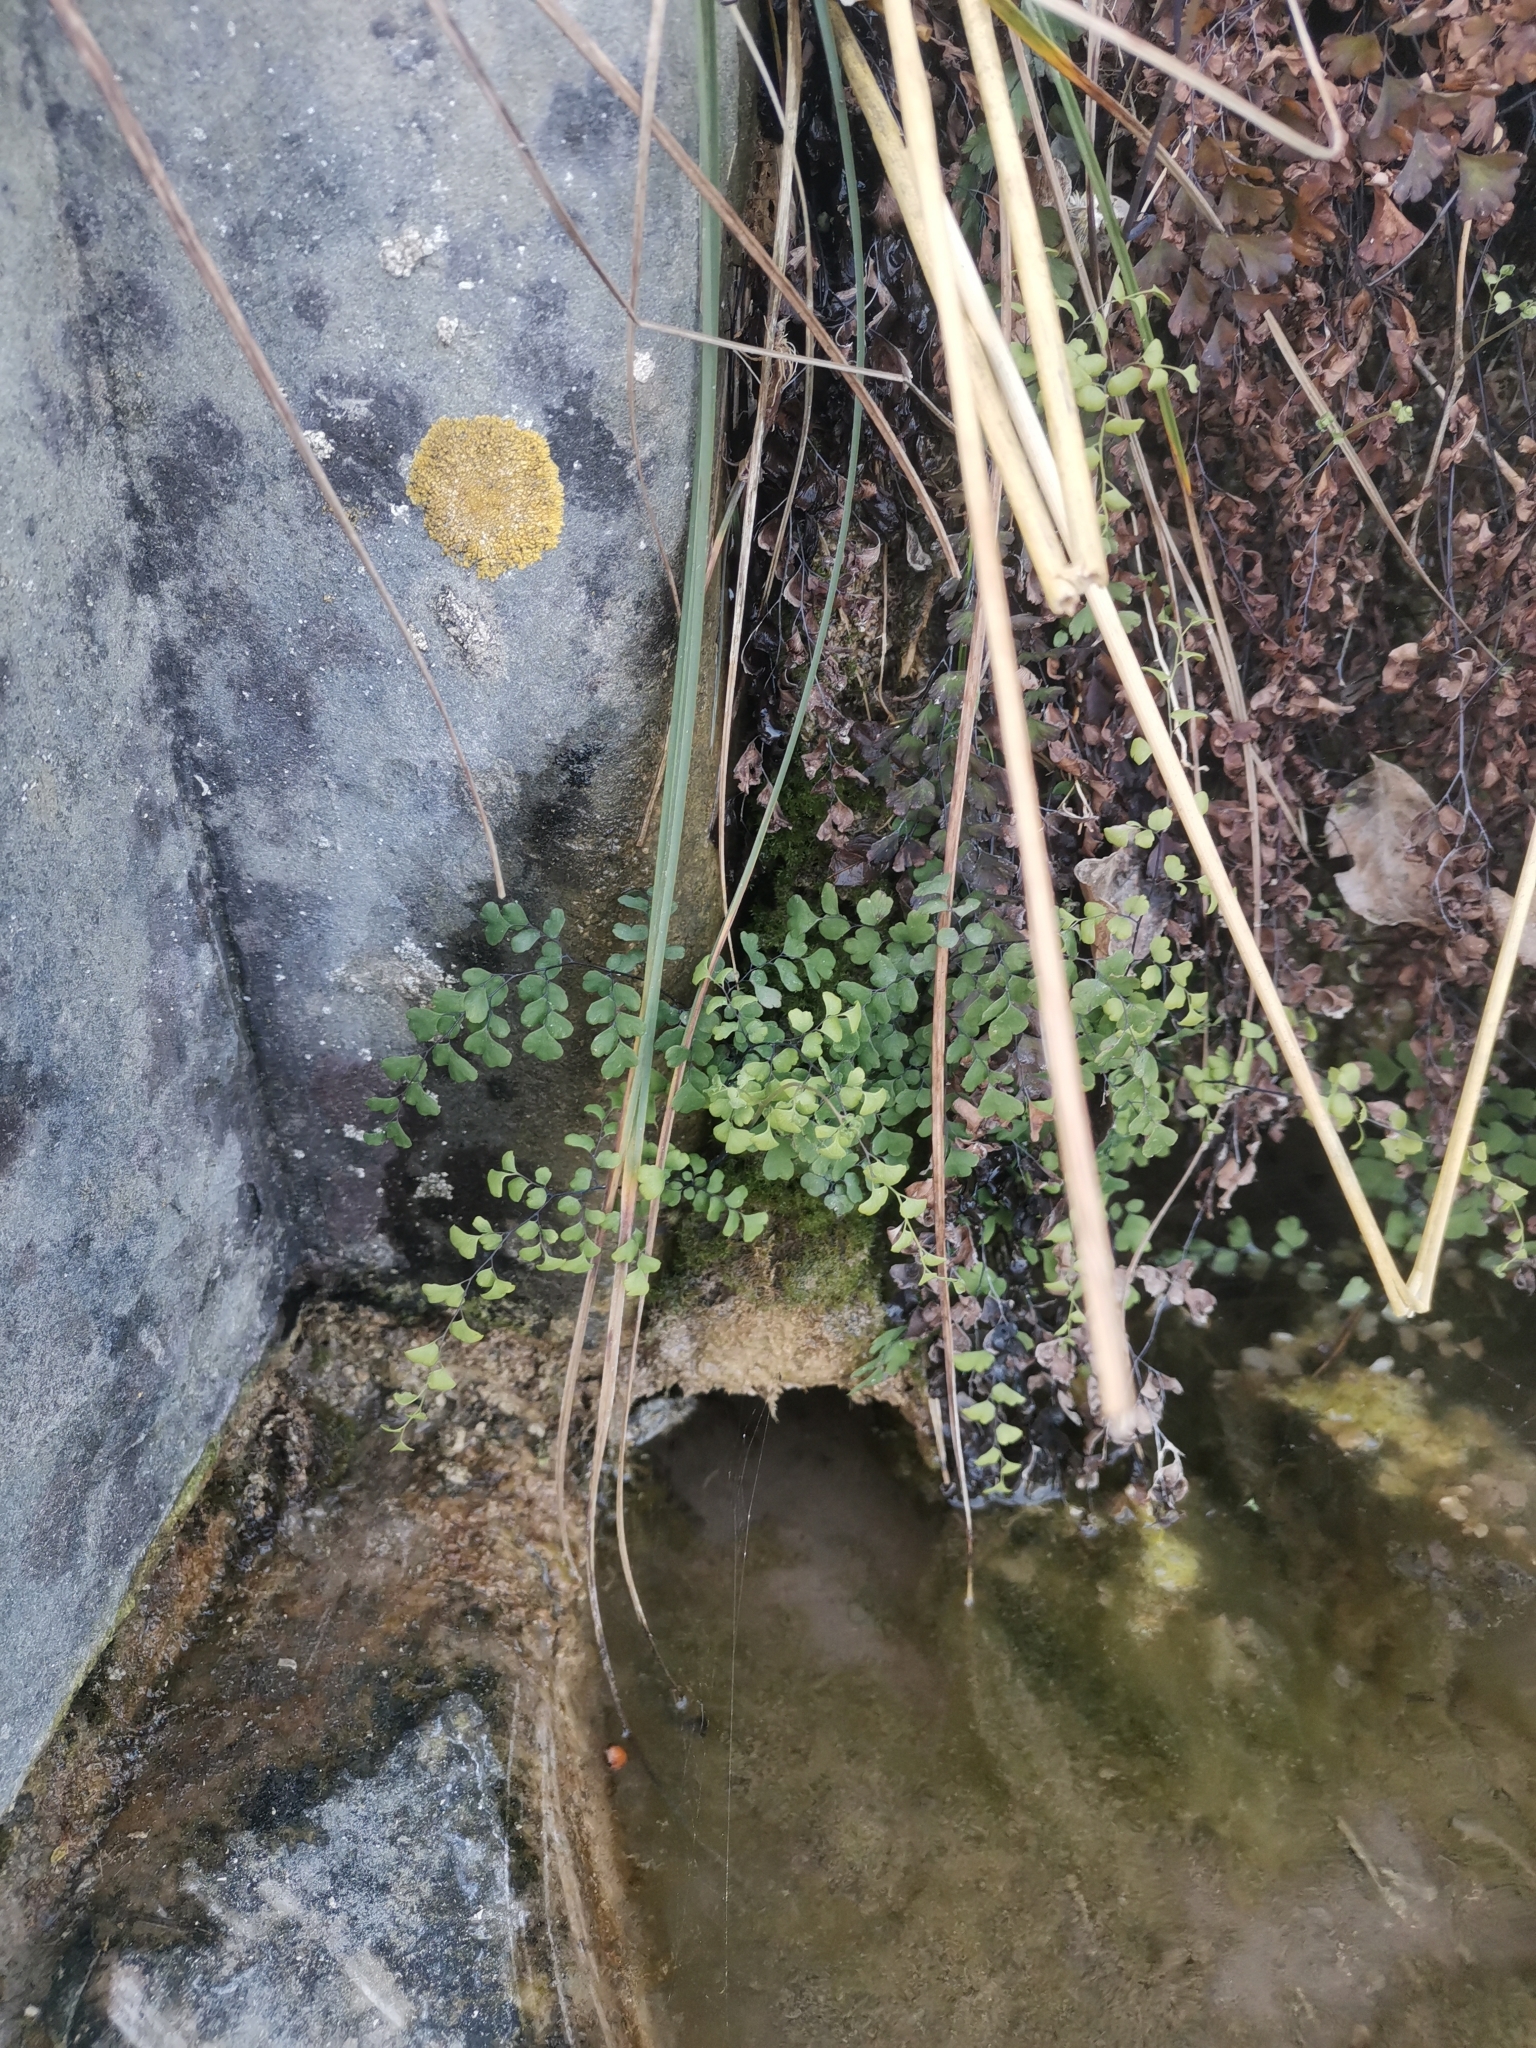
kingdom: Plantae
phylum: Tracheophyta
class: Polypodiopsida
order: Polypodiales
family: Pteridaceae
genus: Adiantum
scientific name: Adiantum capillus-veneris
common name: Maidenhair fern
